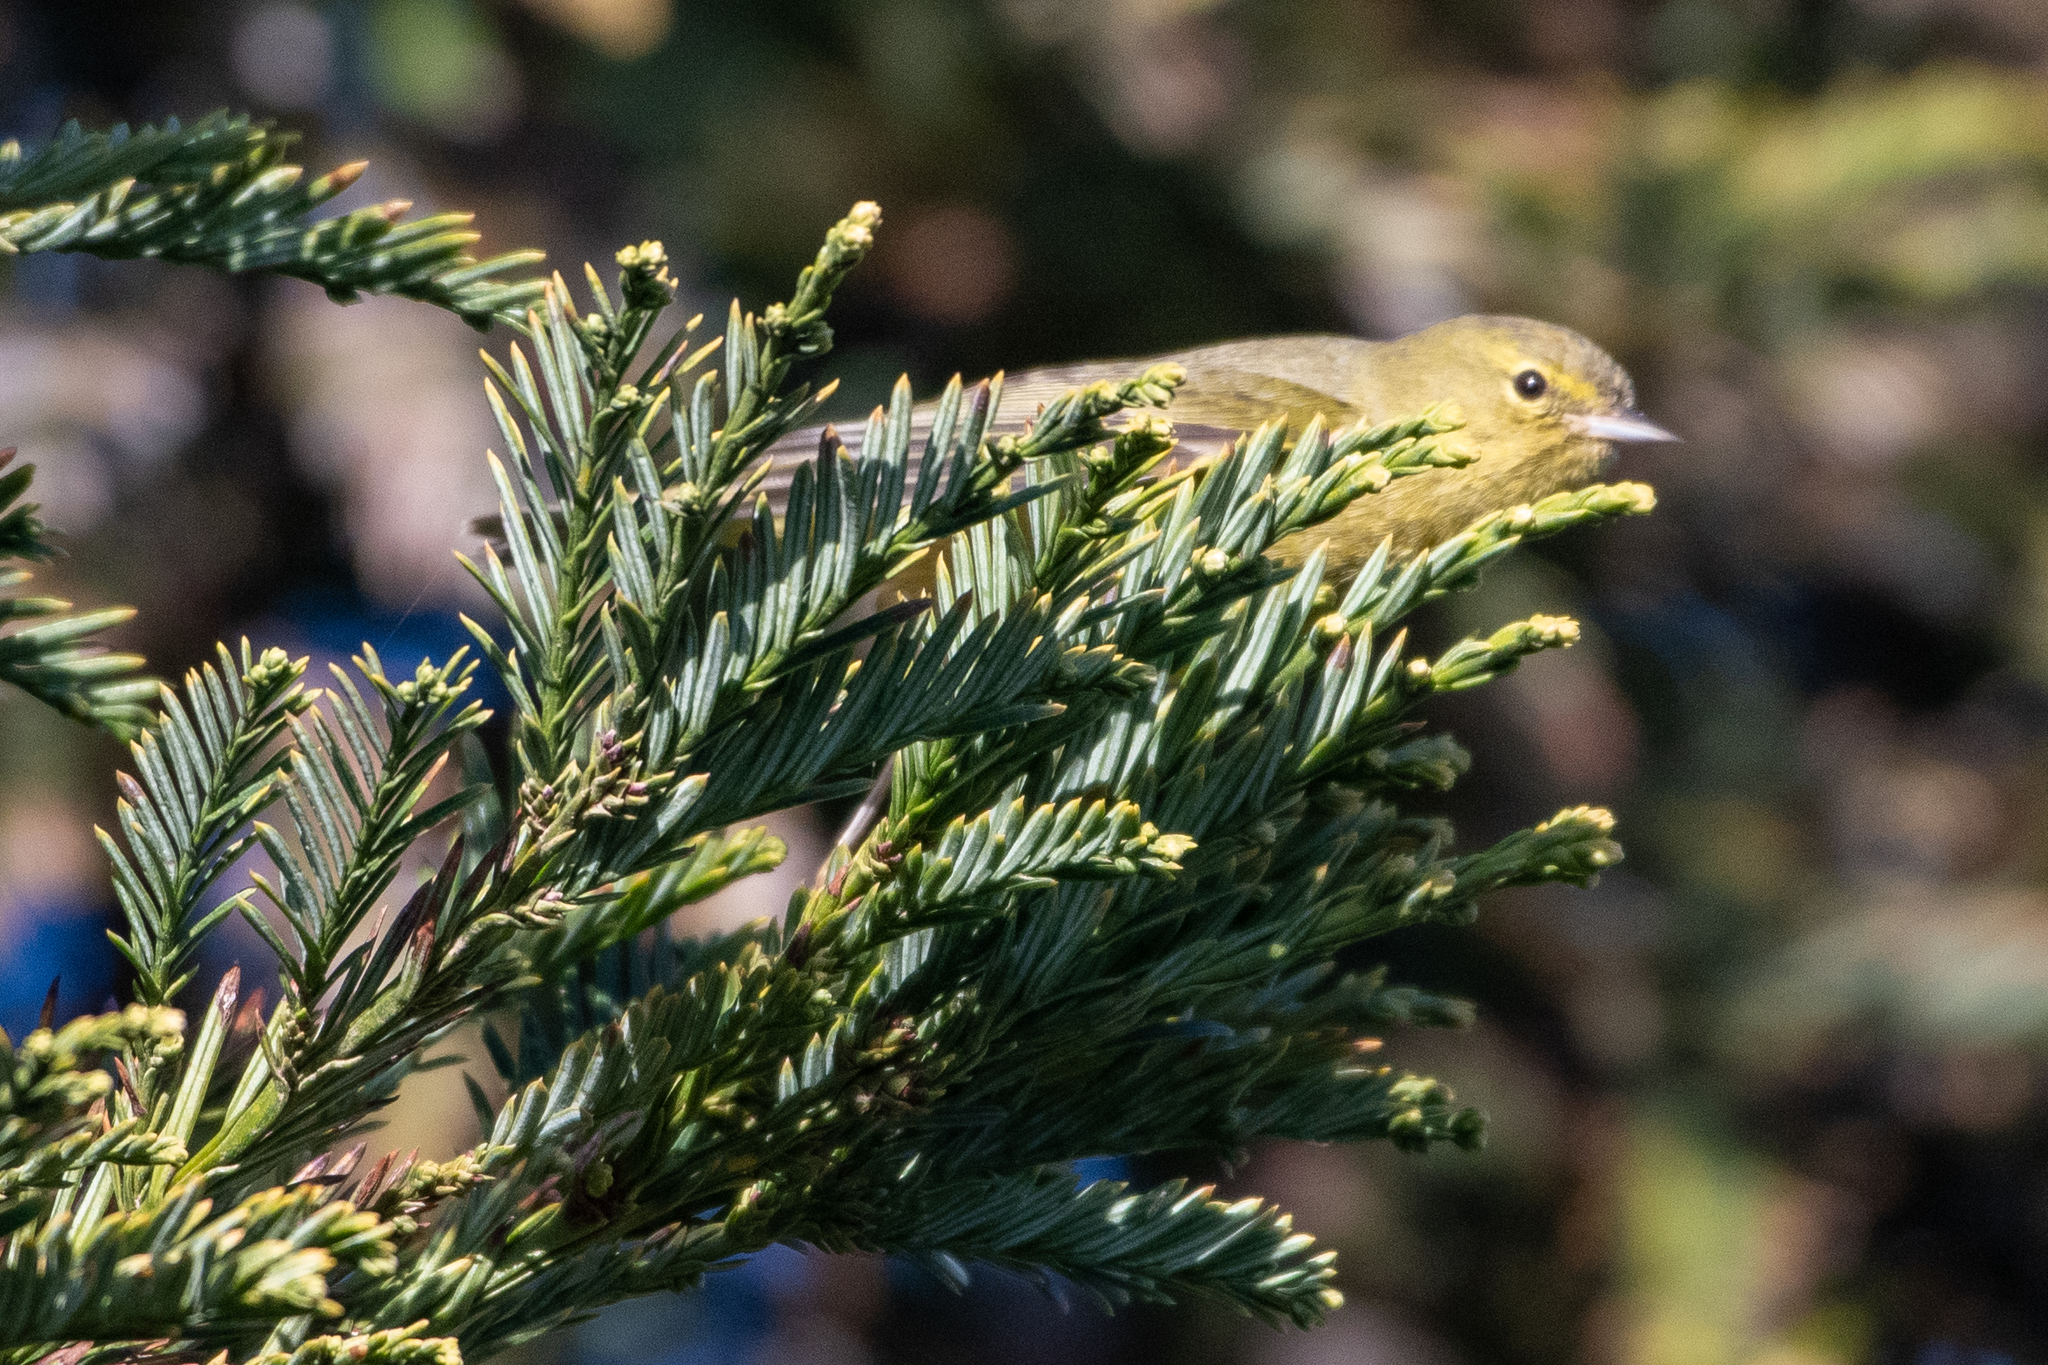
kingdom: Animalia
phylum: Chordata
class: Aves
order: Passeriformes
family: Parulidae
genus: Leiothlypis
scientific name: Leiothlypis celata
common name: Orange-crowned warbler
